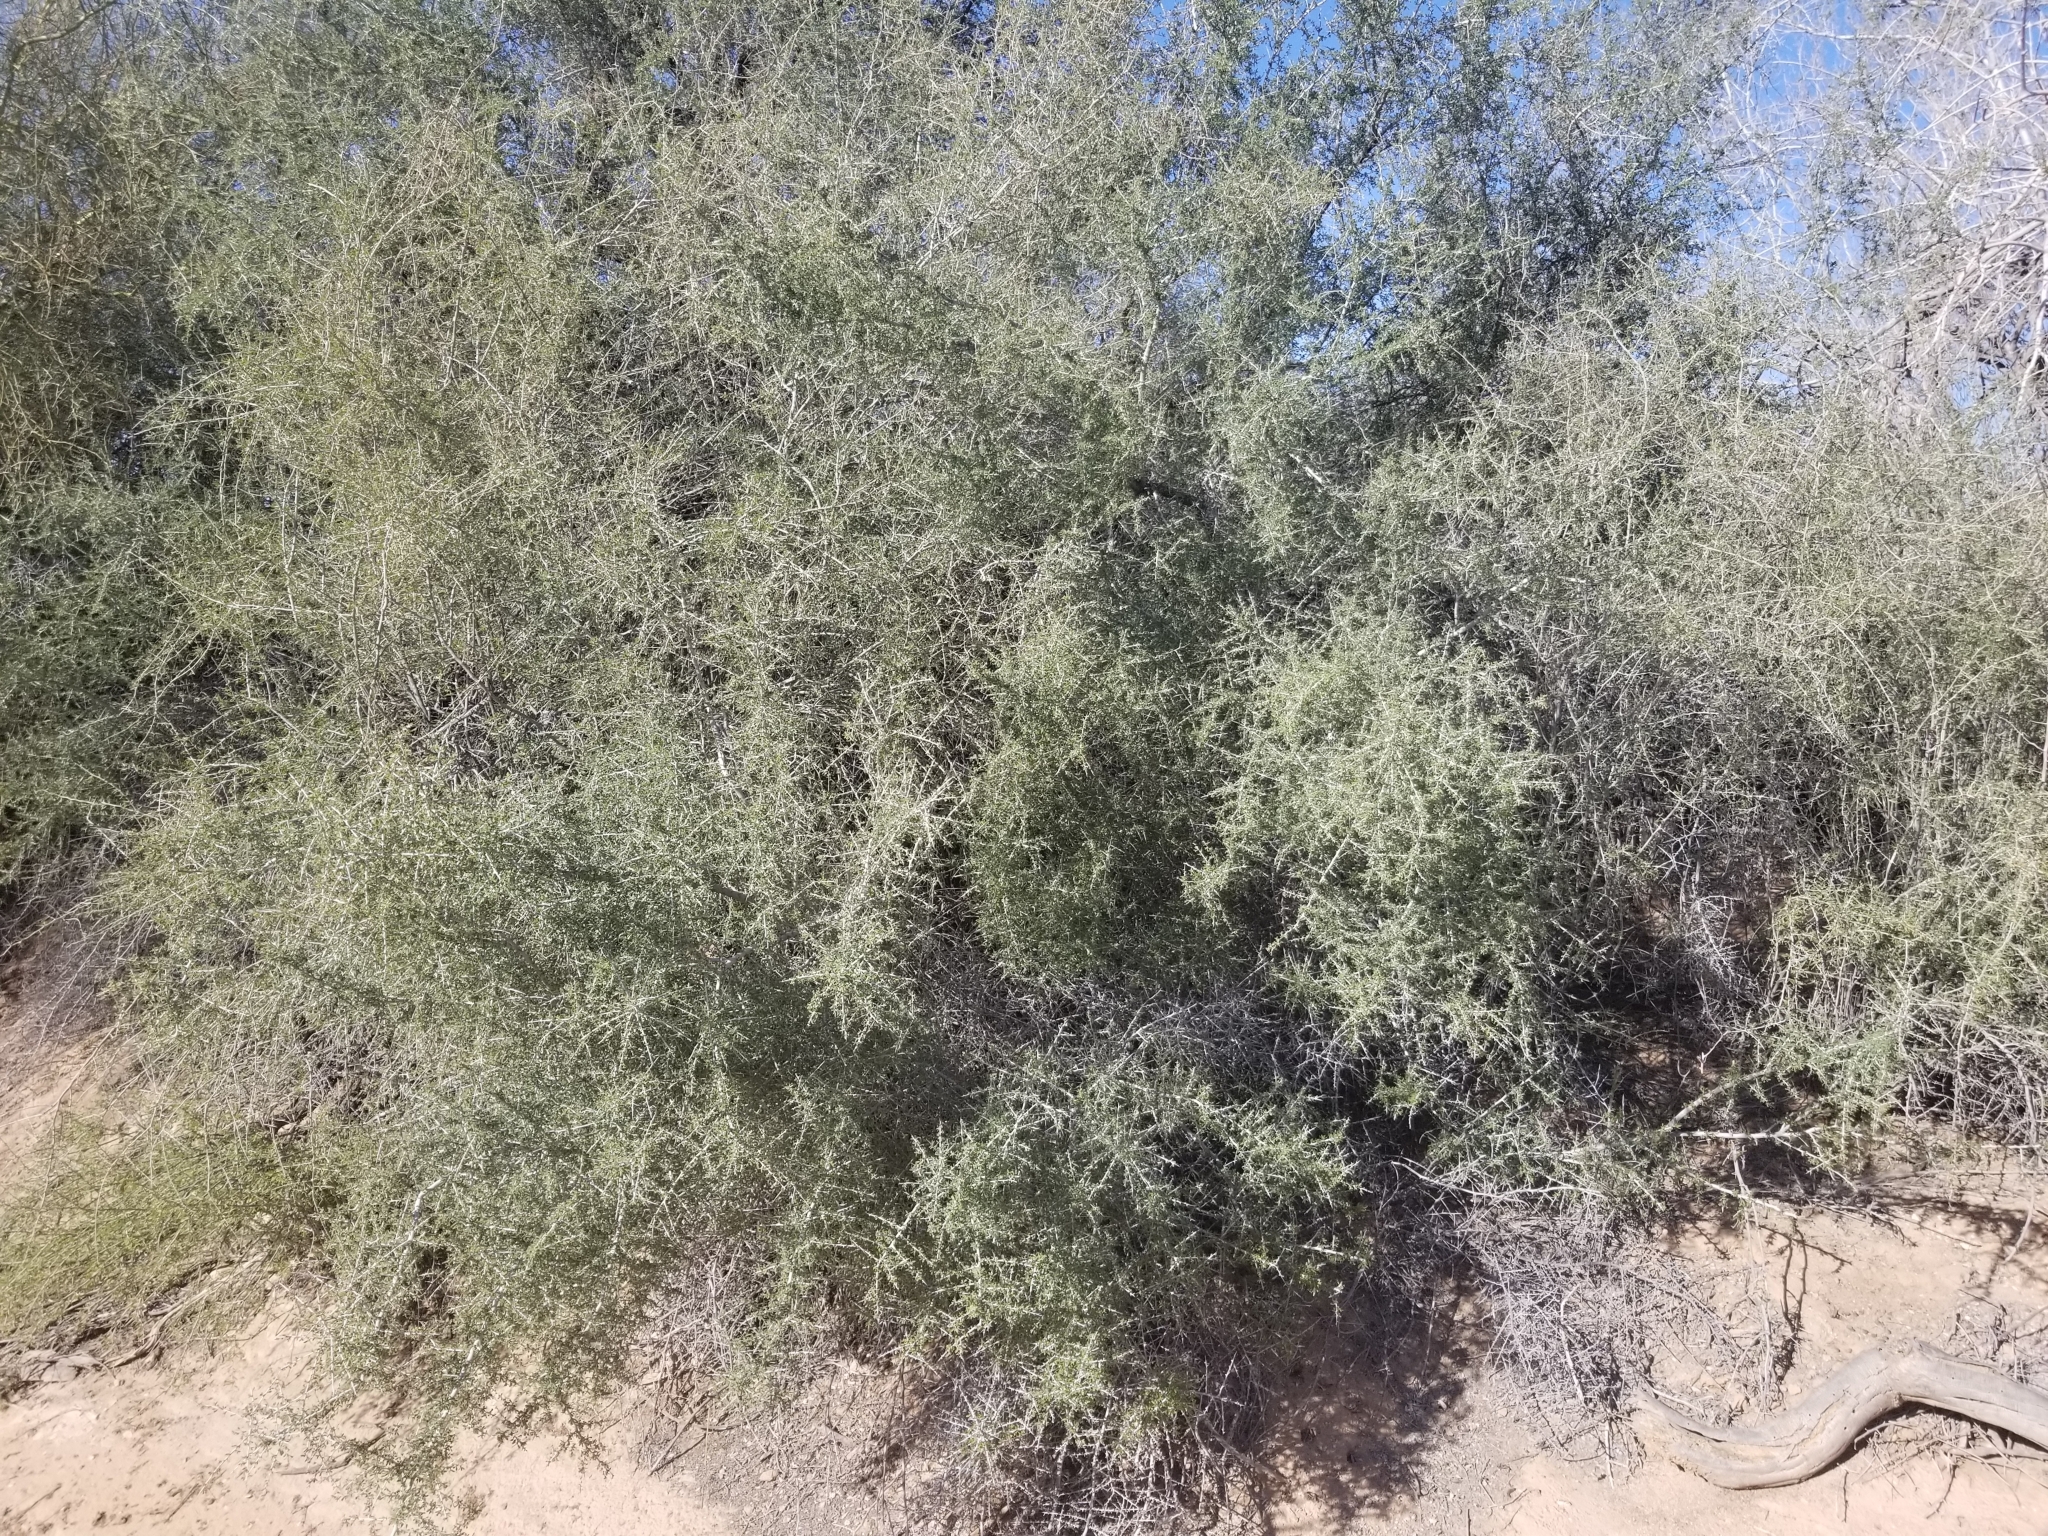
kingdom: Plantae
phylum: Tracheophyta
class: Magnoliopsida
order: Rosales
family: Rhamnaceae
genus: Condalia
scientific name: Condalia globosa
